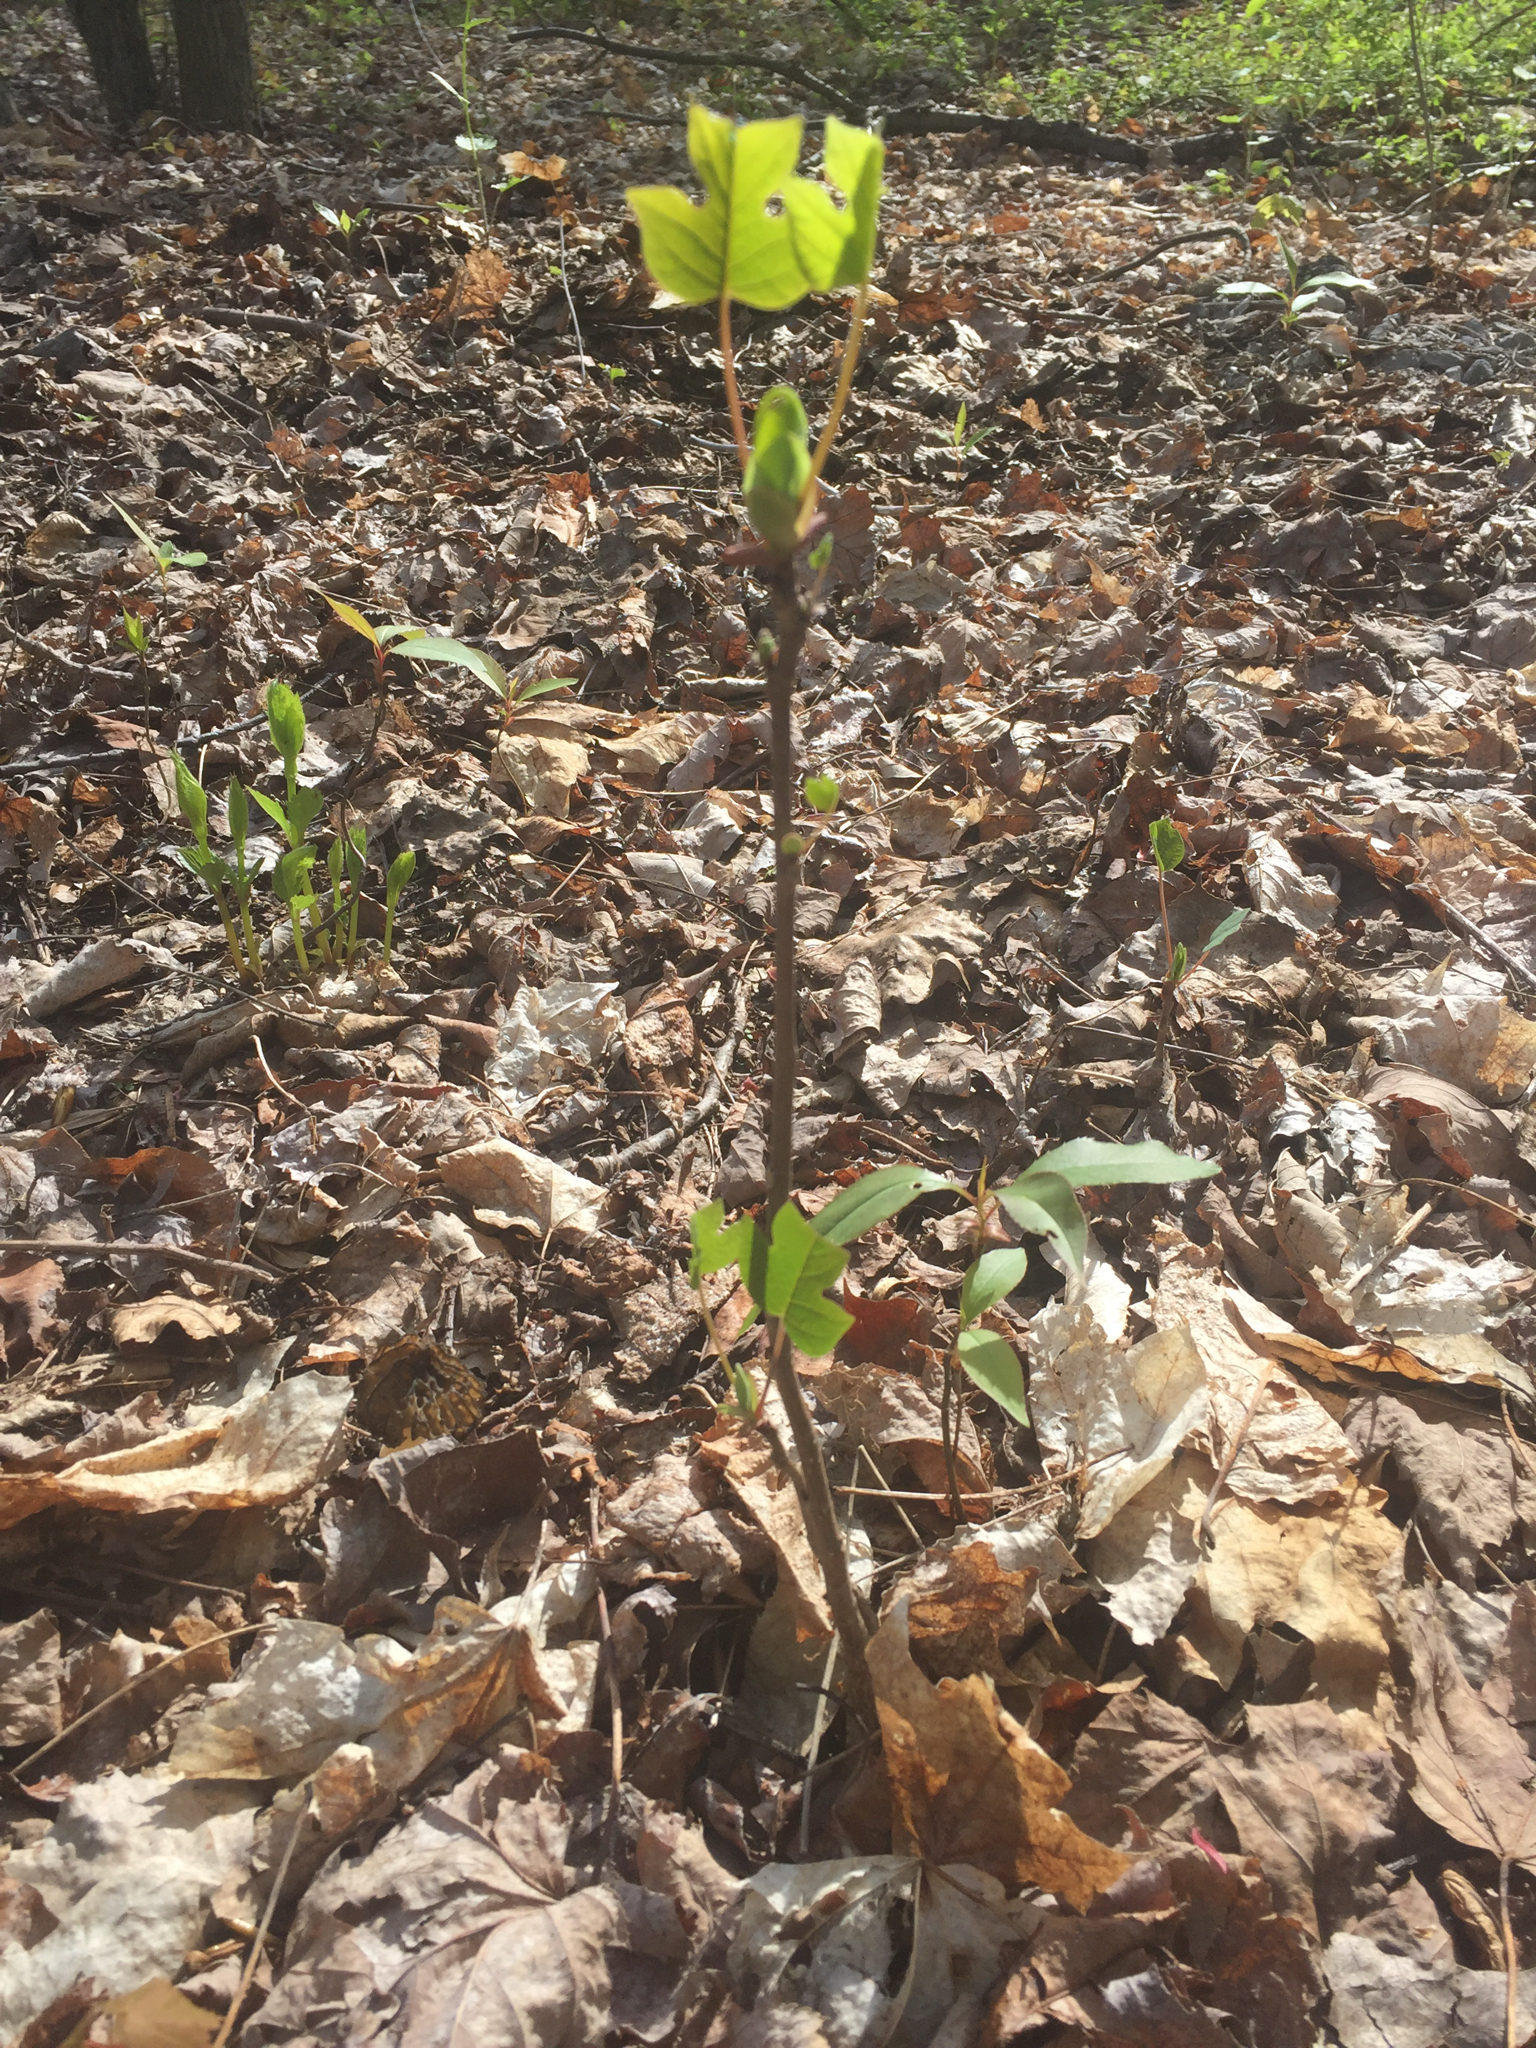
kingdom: Plantae
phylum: Tracheophyta
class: Magnoliopsida
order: Magnoliales
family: Magnoliaceae
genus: Liriodendron
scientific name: Liriodendron tulipifera
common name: Tulip tree
